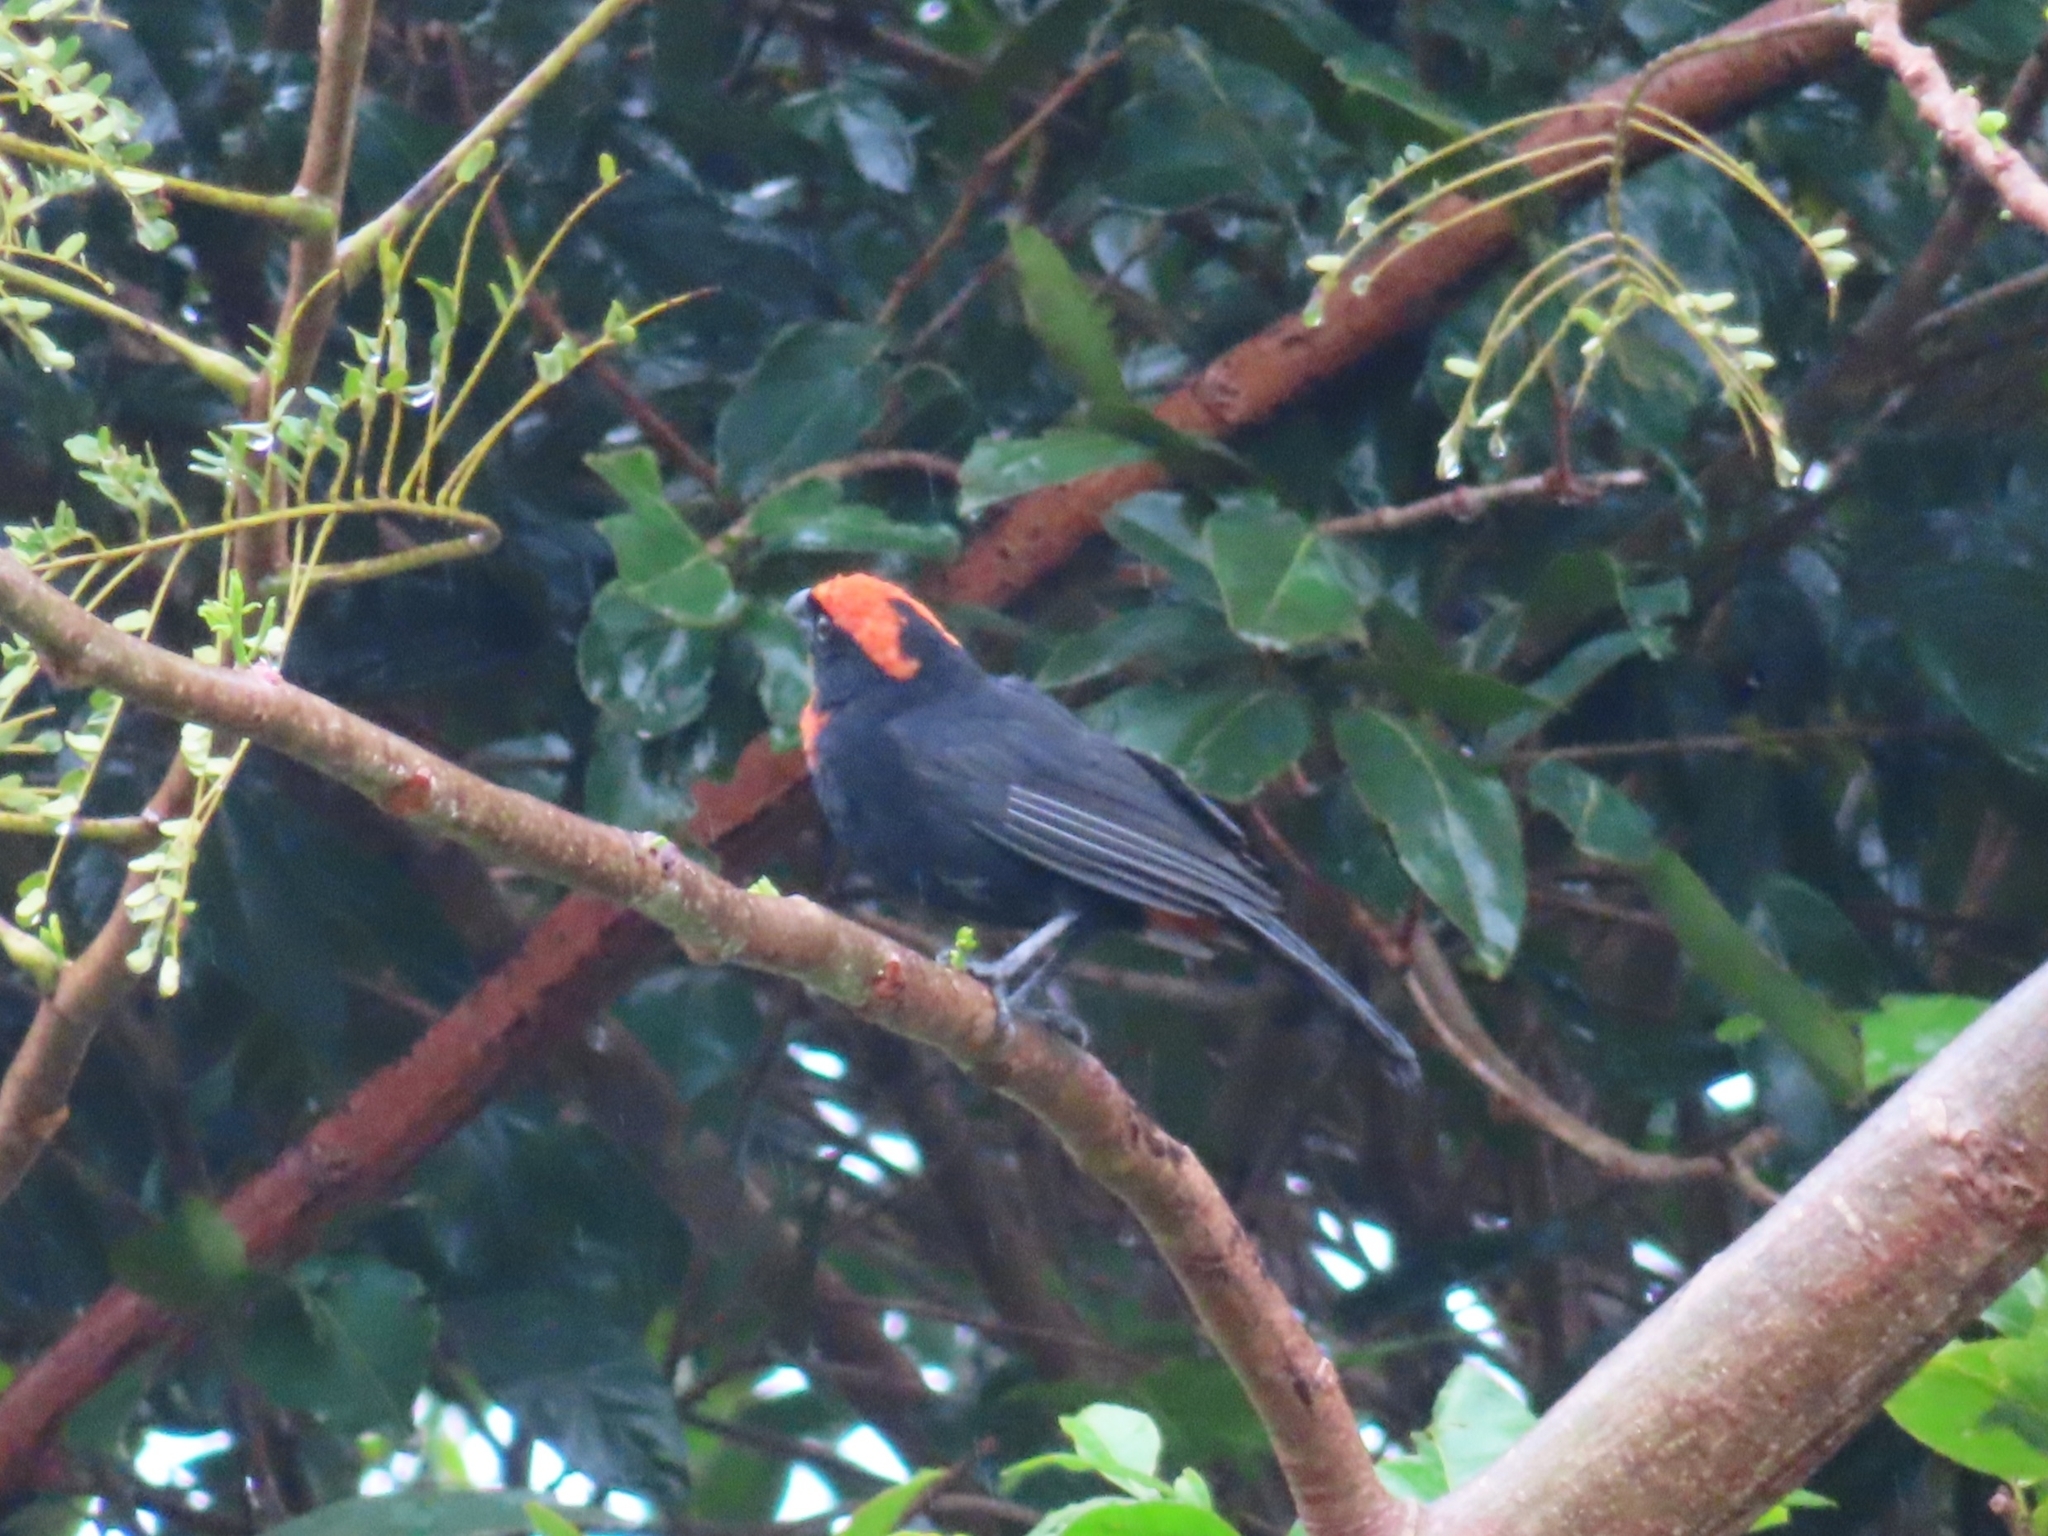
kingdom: Animalia
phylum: Chordata
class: Aves
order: Passeriformes
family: Thraupidae
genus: Melopyrrha
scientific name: Melopyrrha portoricensis
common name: Puerto rican bullfinch
